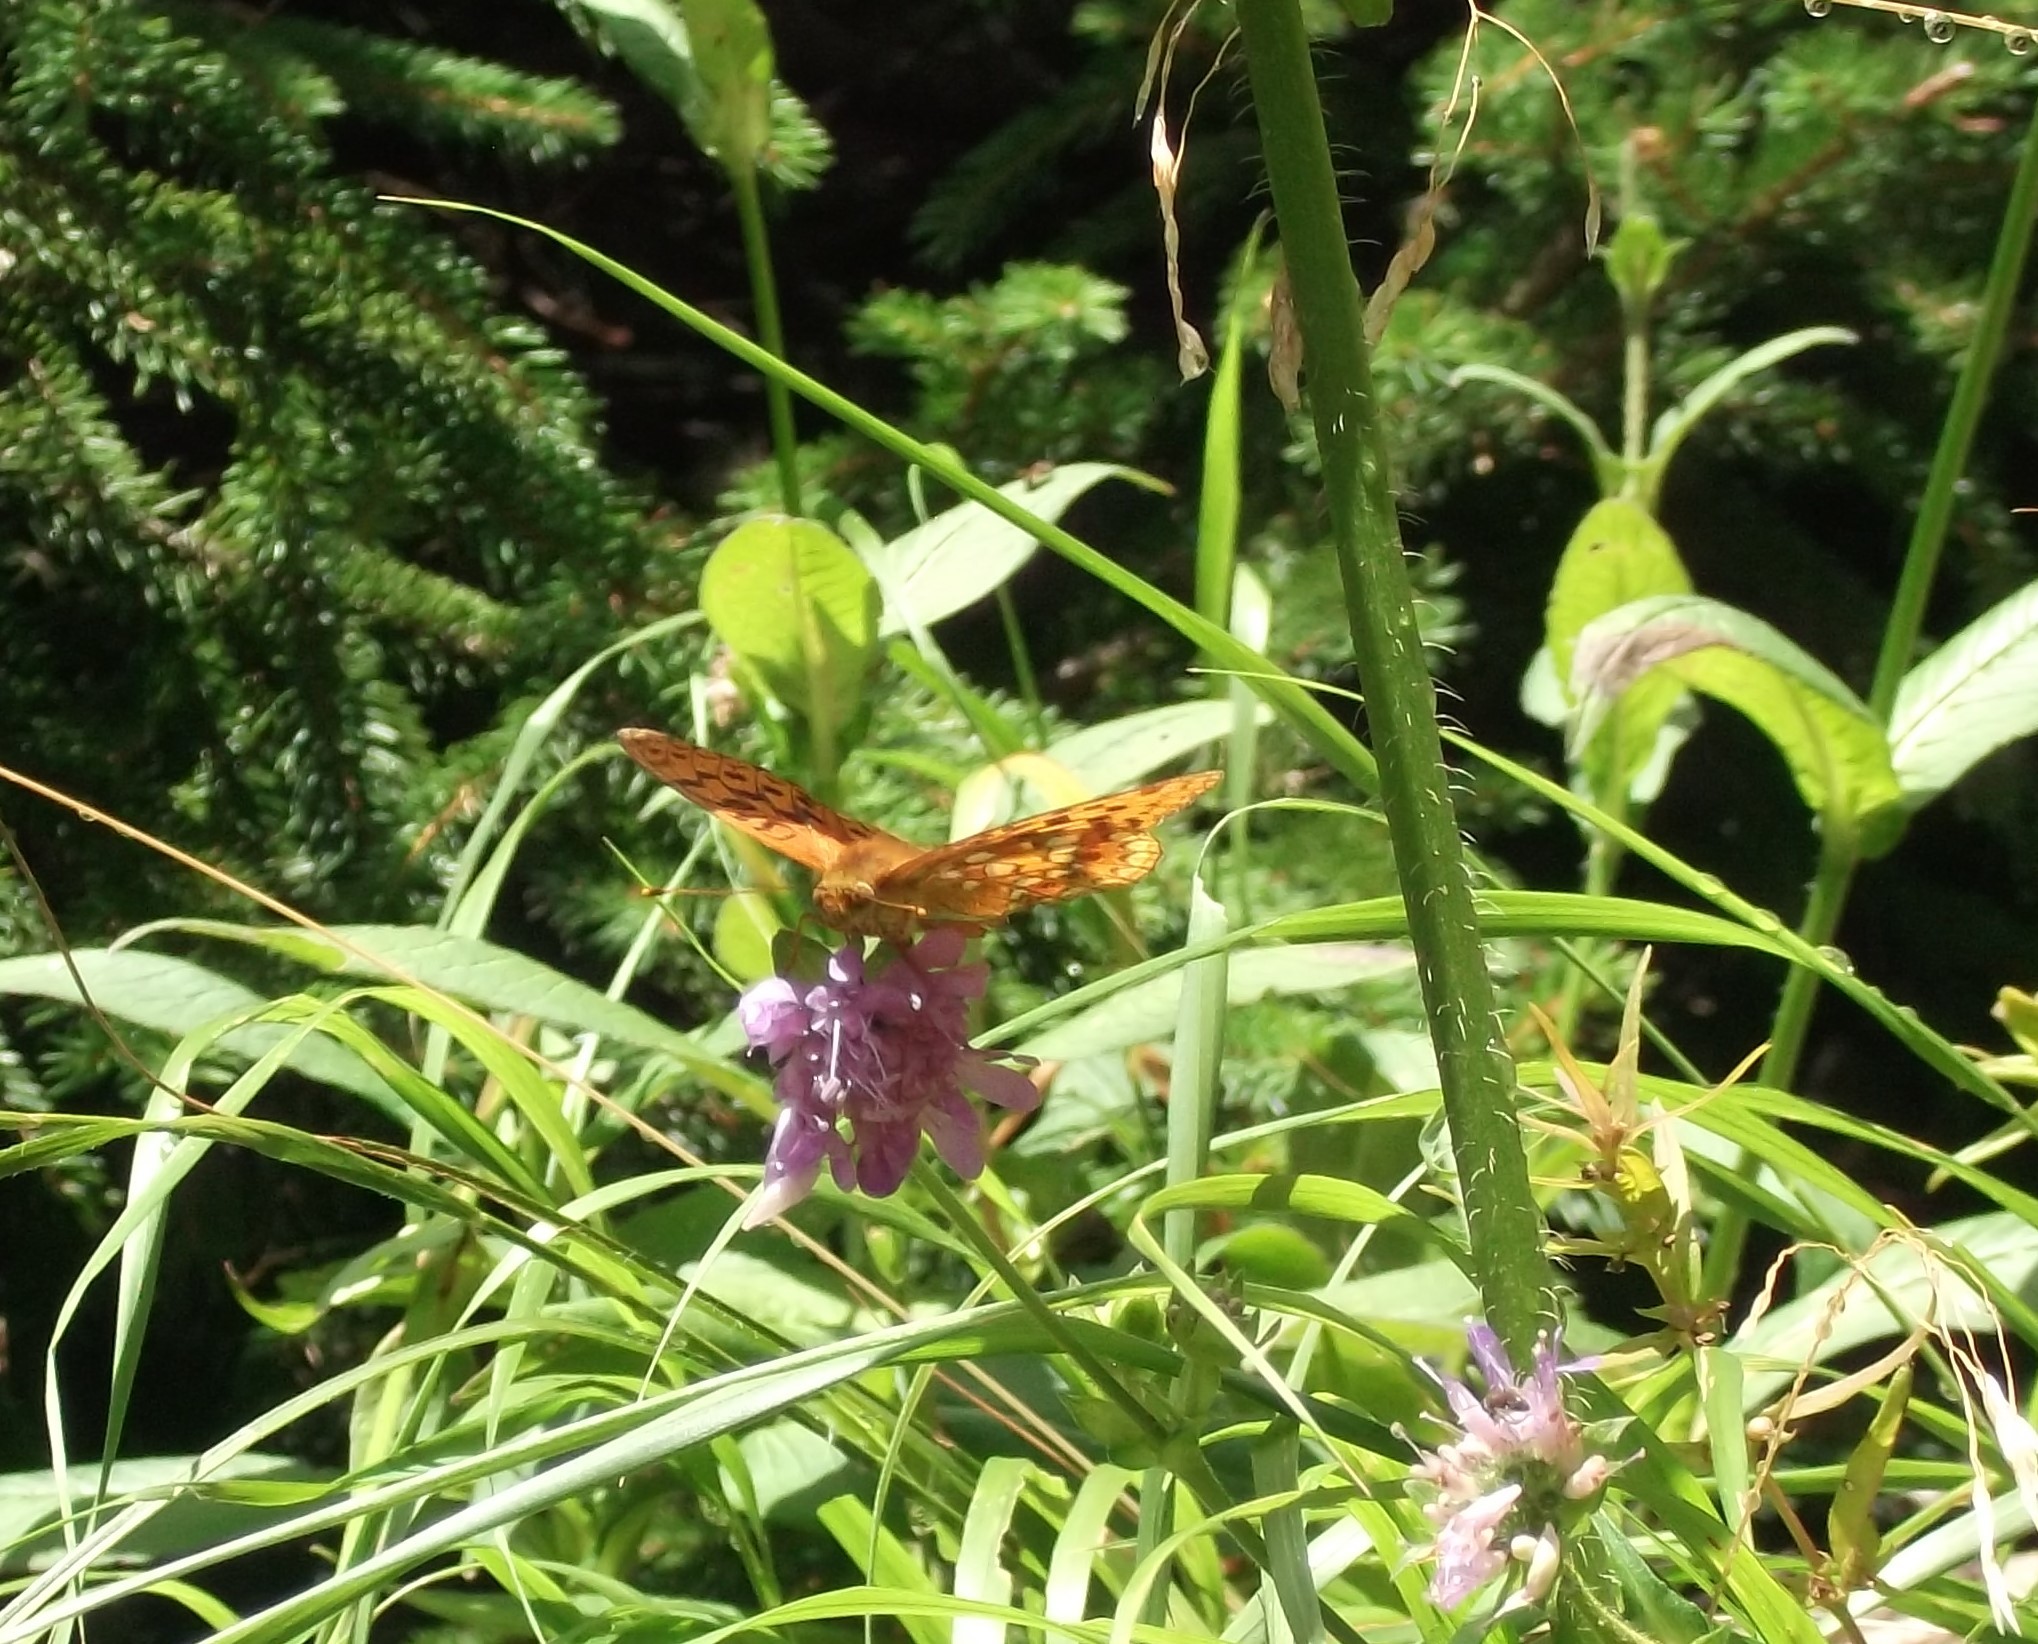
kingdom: Animalia
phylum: Arthropoda
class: Insecta
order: Lepidoptera
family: Nymphalidae
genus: Fabriciana
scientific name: Fabriciana adippe
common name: High brown fritillary
